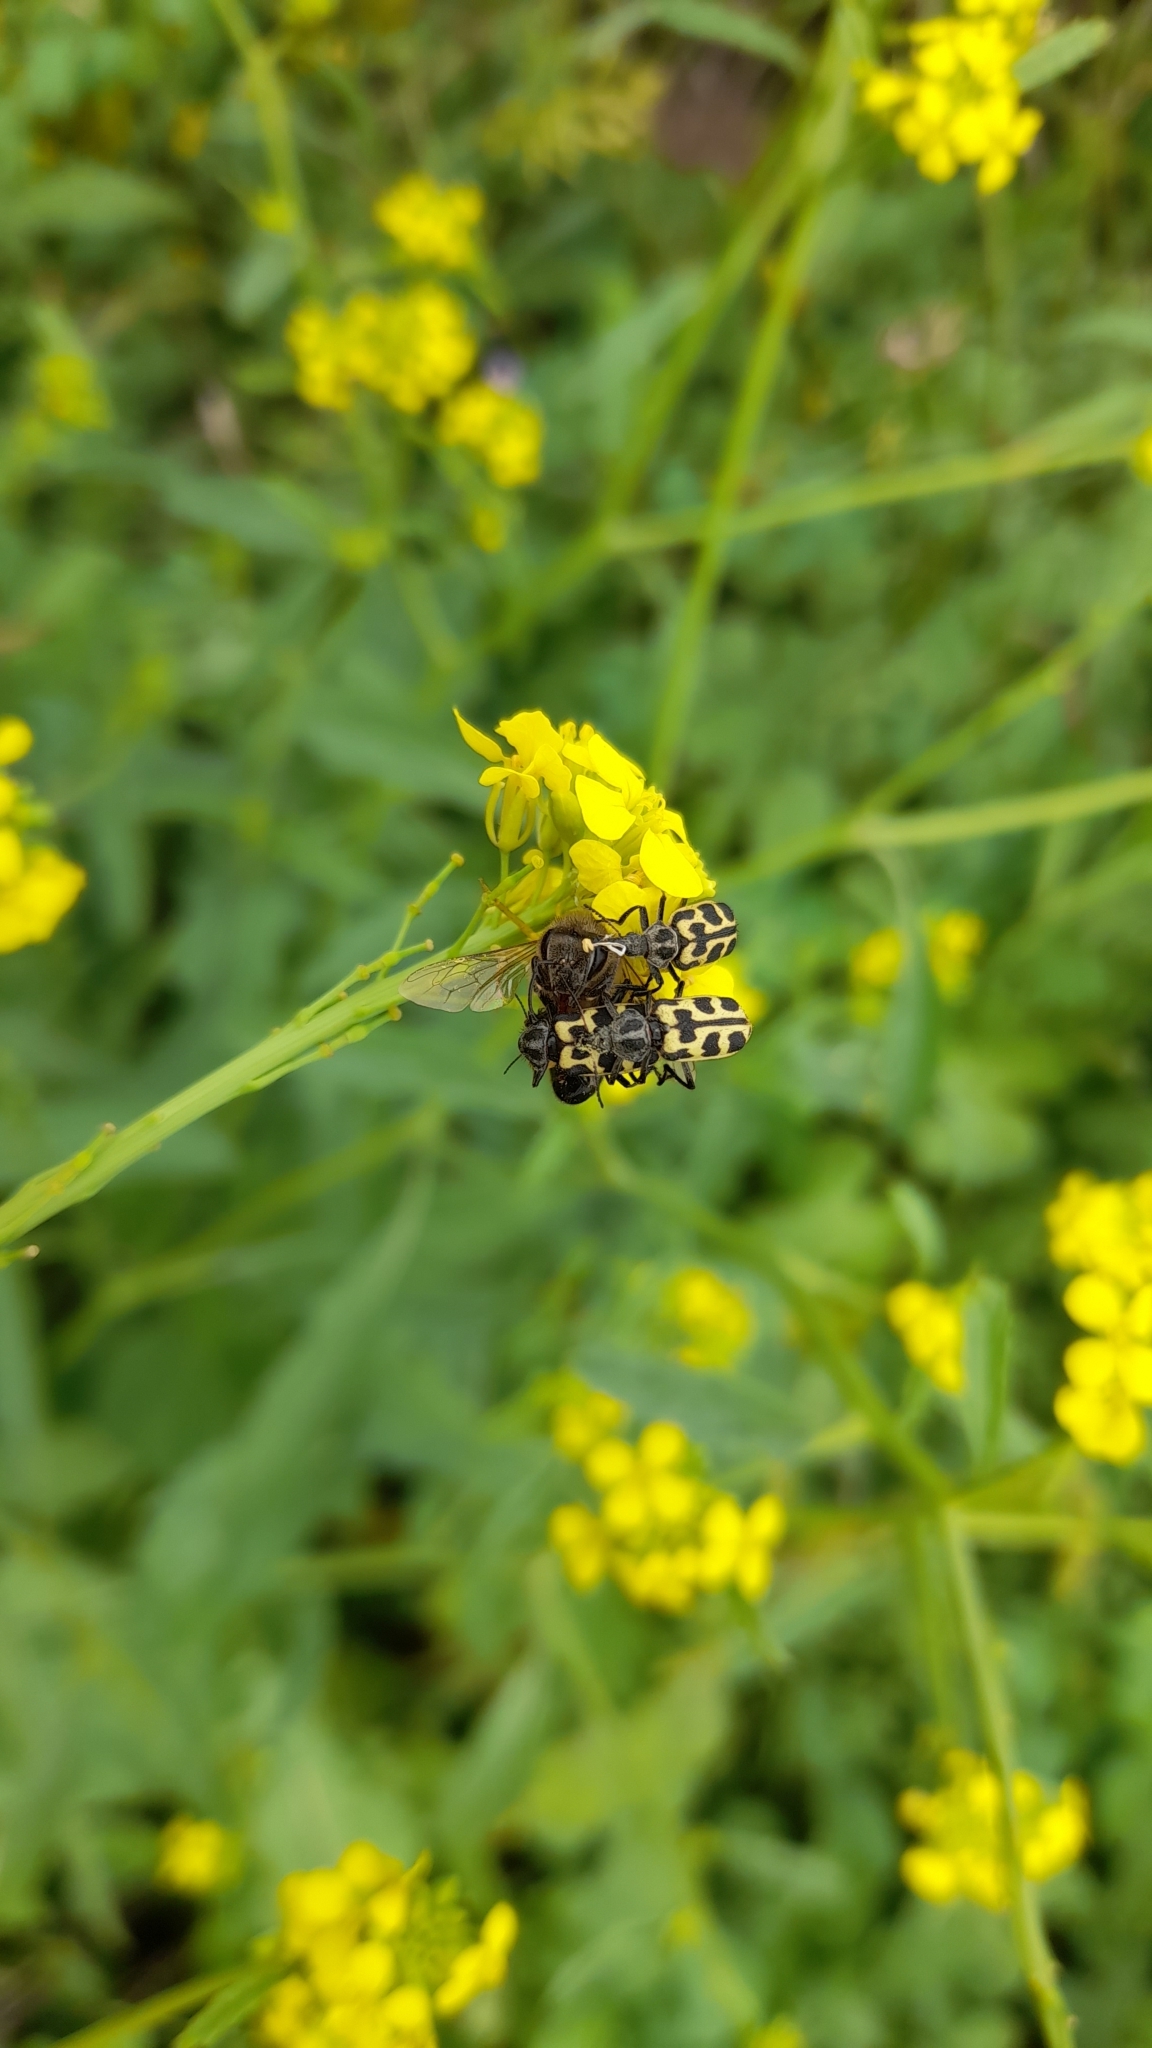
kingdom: Animalia
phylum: Arthropoda
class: Insecta
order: Coleoptera
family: Melyridae
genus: Astylus
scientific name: Astylus atromaculatus
